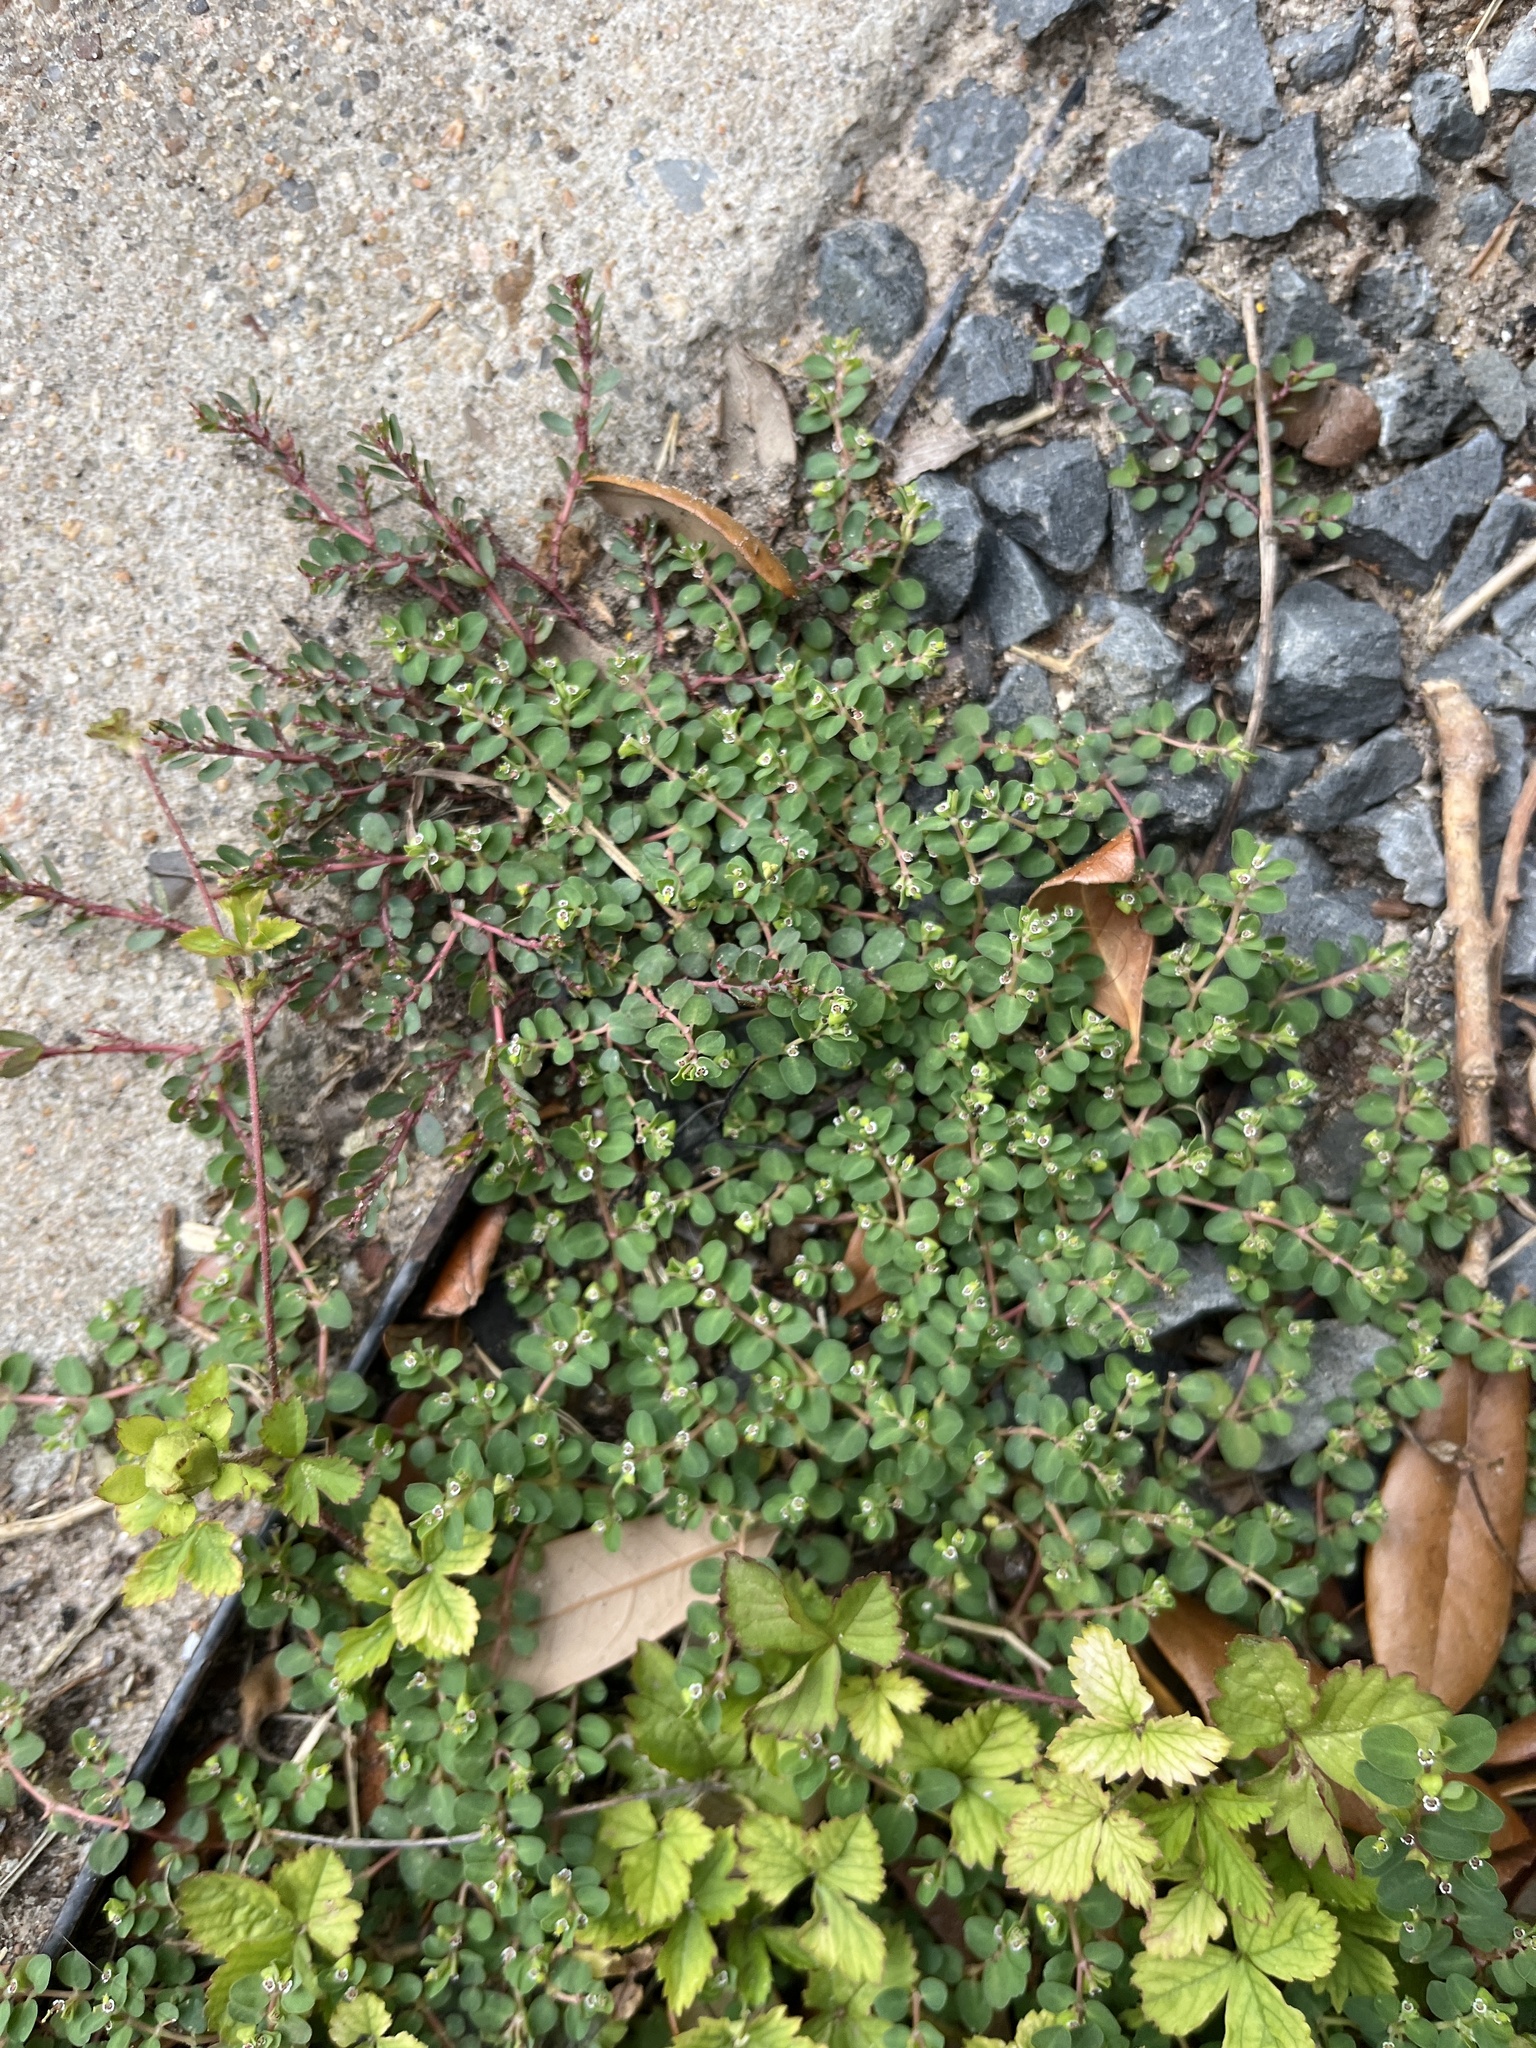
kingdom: Plantae
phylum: Tracheophyta
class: Magnoliopsida
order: Malpighiales
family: Euphorbiaceae
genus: Euphorbia
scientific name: Euphorbia serpens
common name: Matted sandmat
